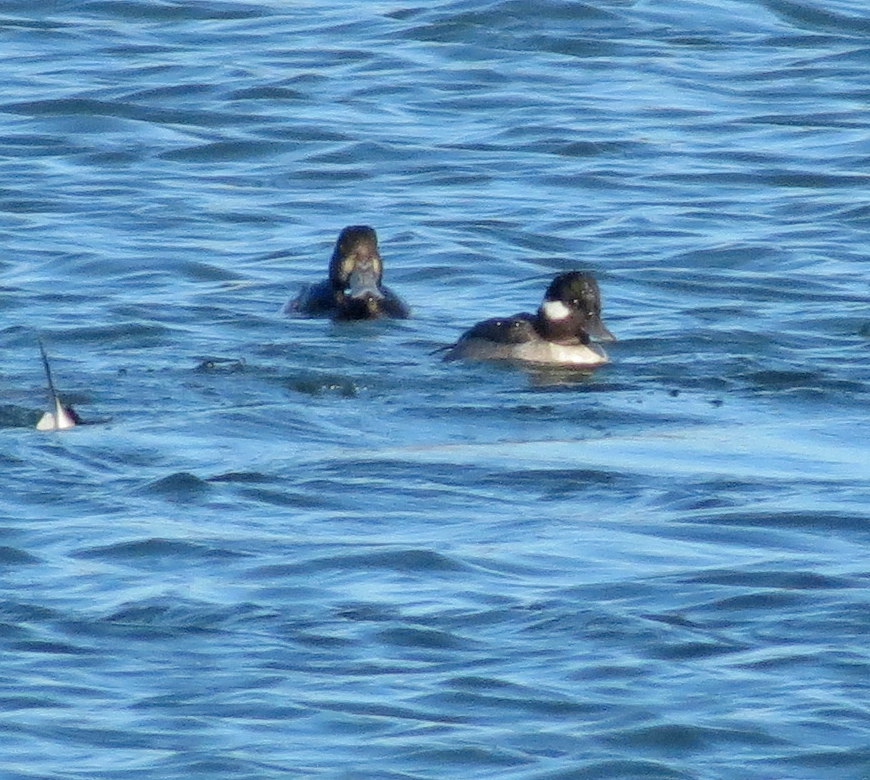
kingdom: Animalia
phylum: Chordata
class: Aves
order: Anseriformes
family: Anatidae
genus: Aythya
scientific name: Aythya marila
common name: Greater scaup
